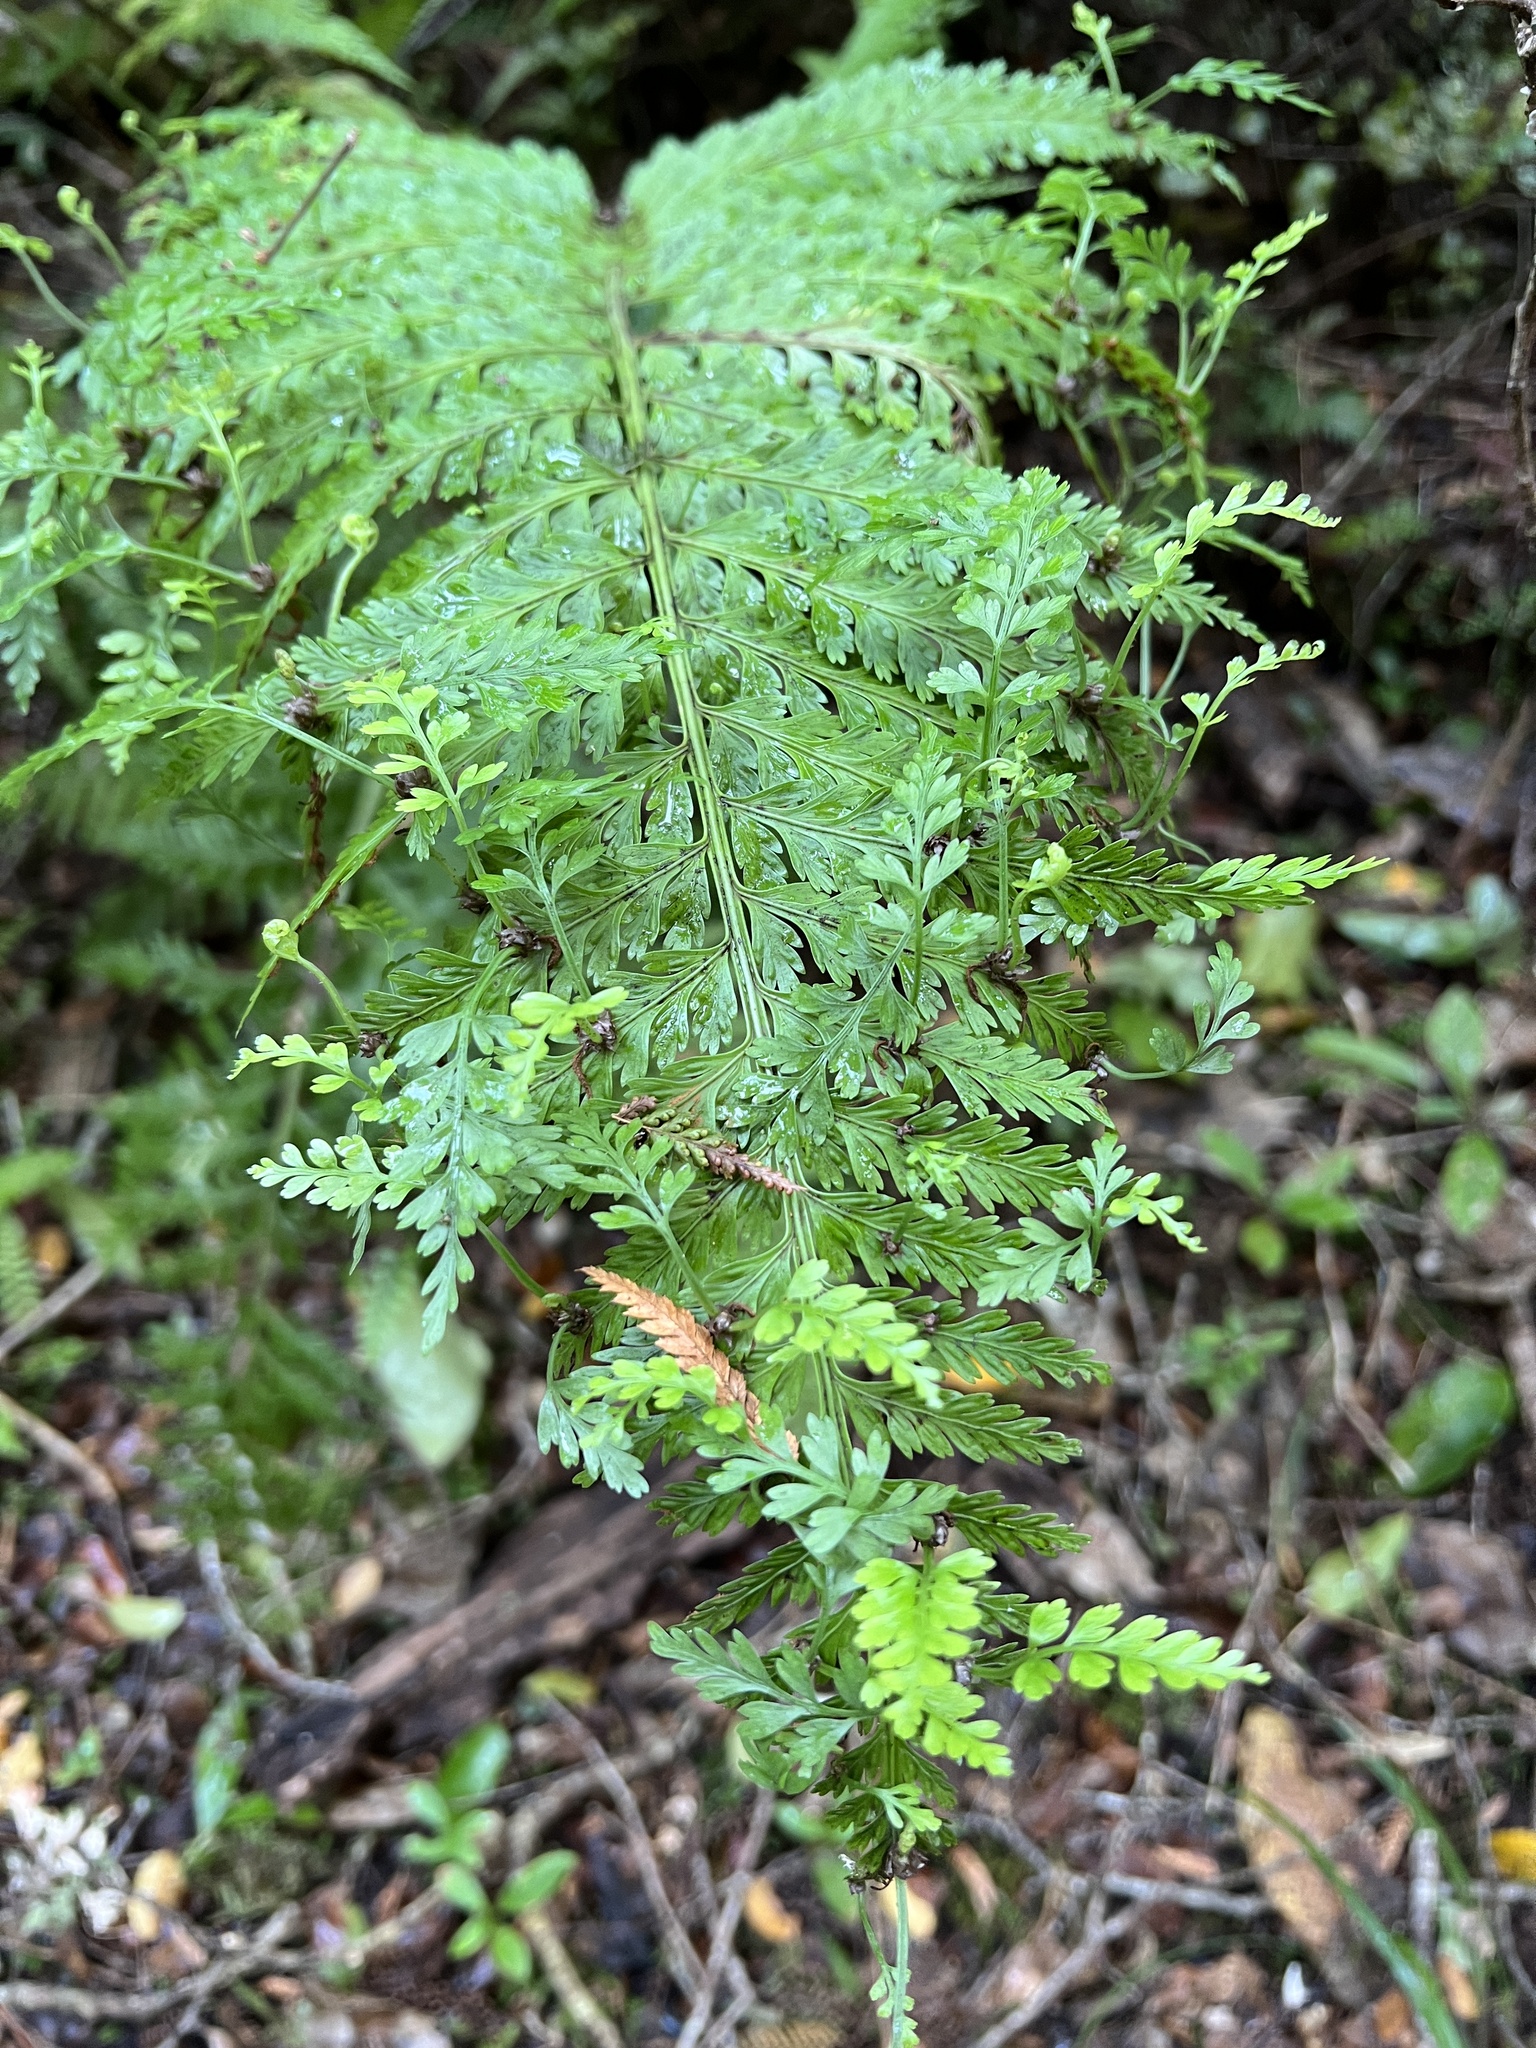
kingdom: Plantae
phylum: Tracheophyta
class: Polypodiopsida
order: Polypodiales
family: Aspleniaceae
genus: Asplenium
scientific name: Asplenium bulbiferum
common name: Mother fern
